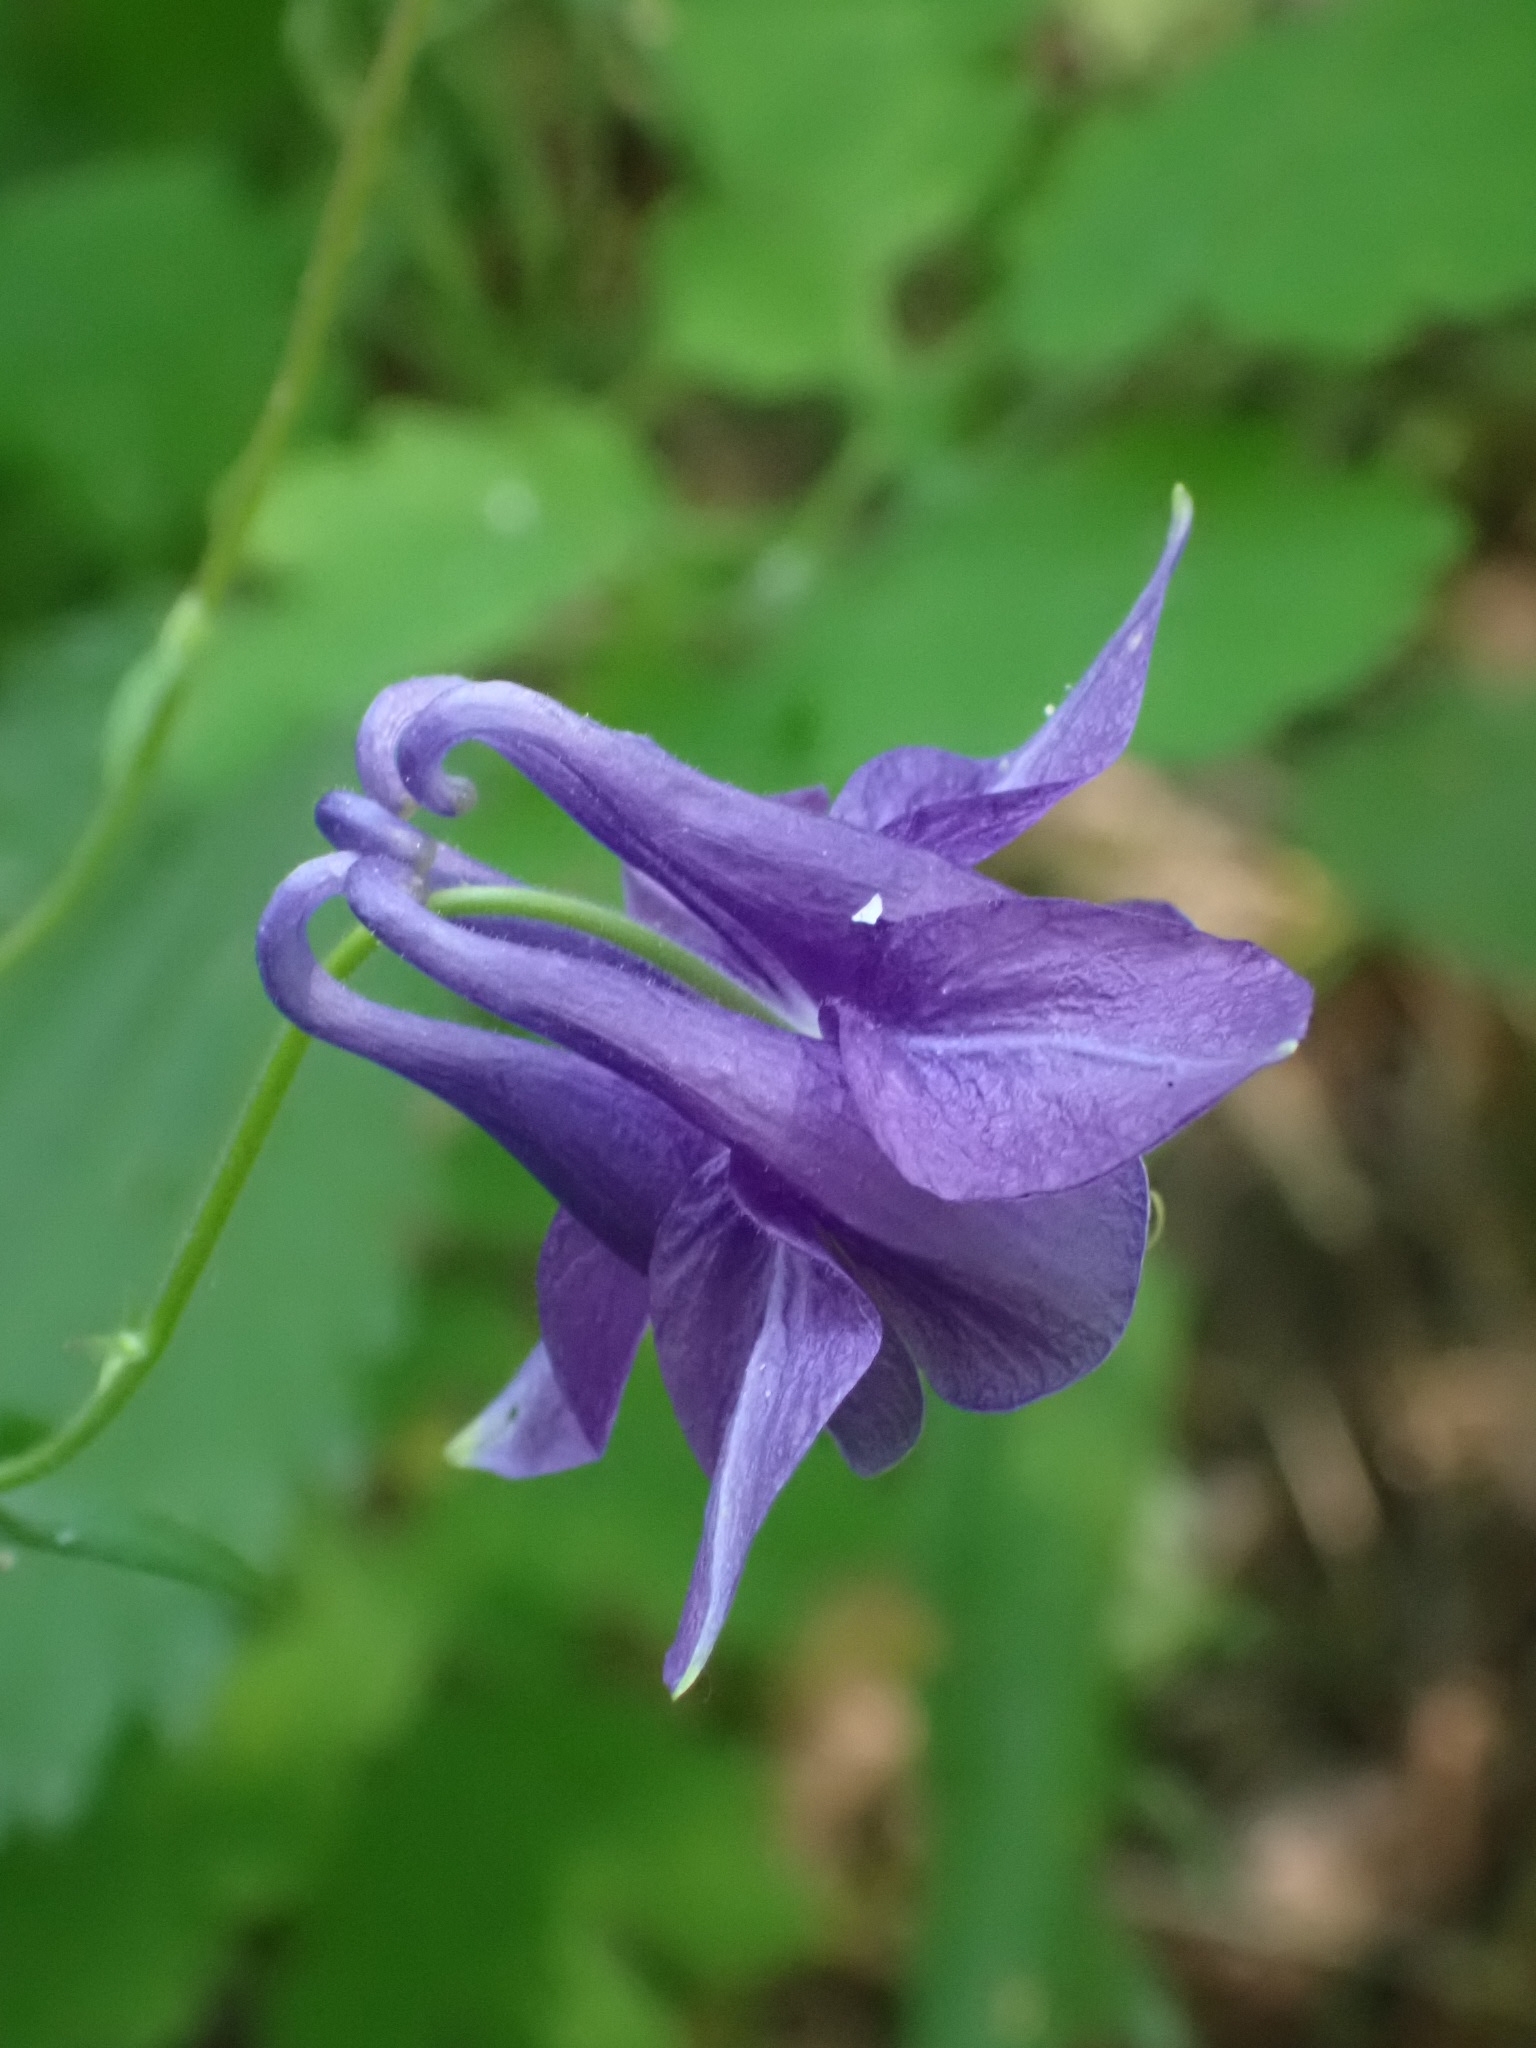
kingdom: Plantae
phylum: Tracheophyta
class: Magnoliopsida
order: Ranunculales
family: Ranunculaceae
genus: Aquilegia
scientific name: Aquilegia vulgaris
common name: Columbine
